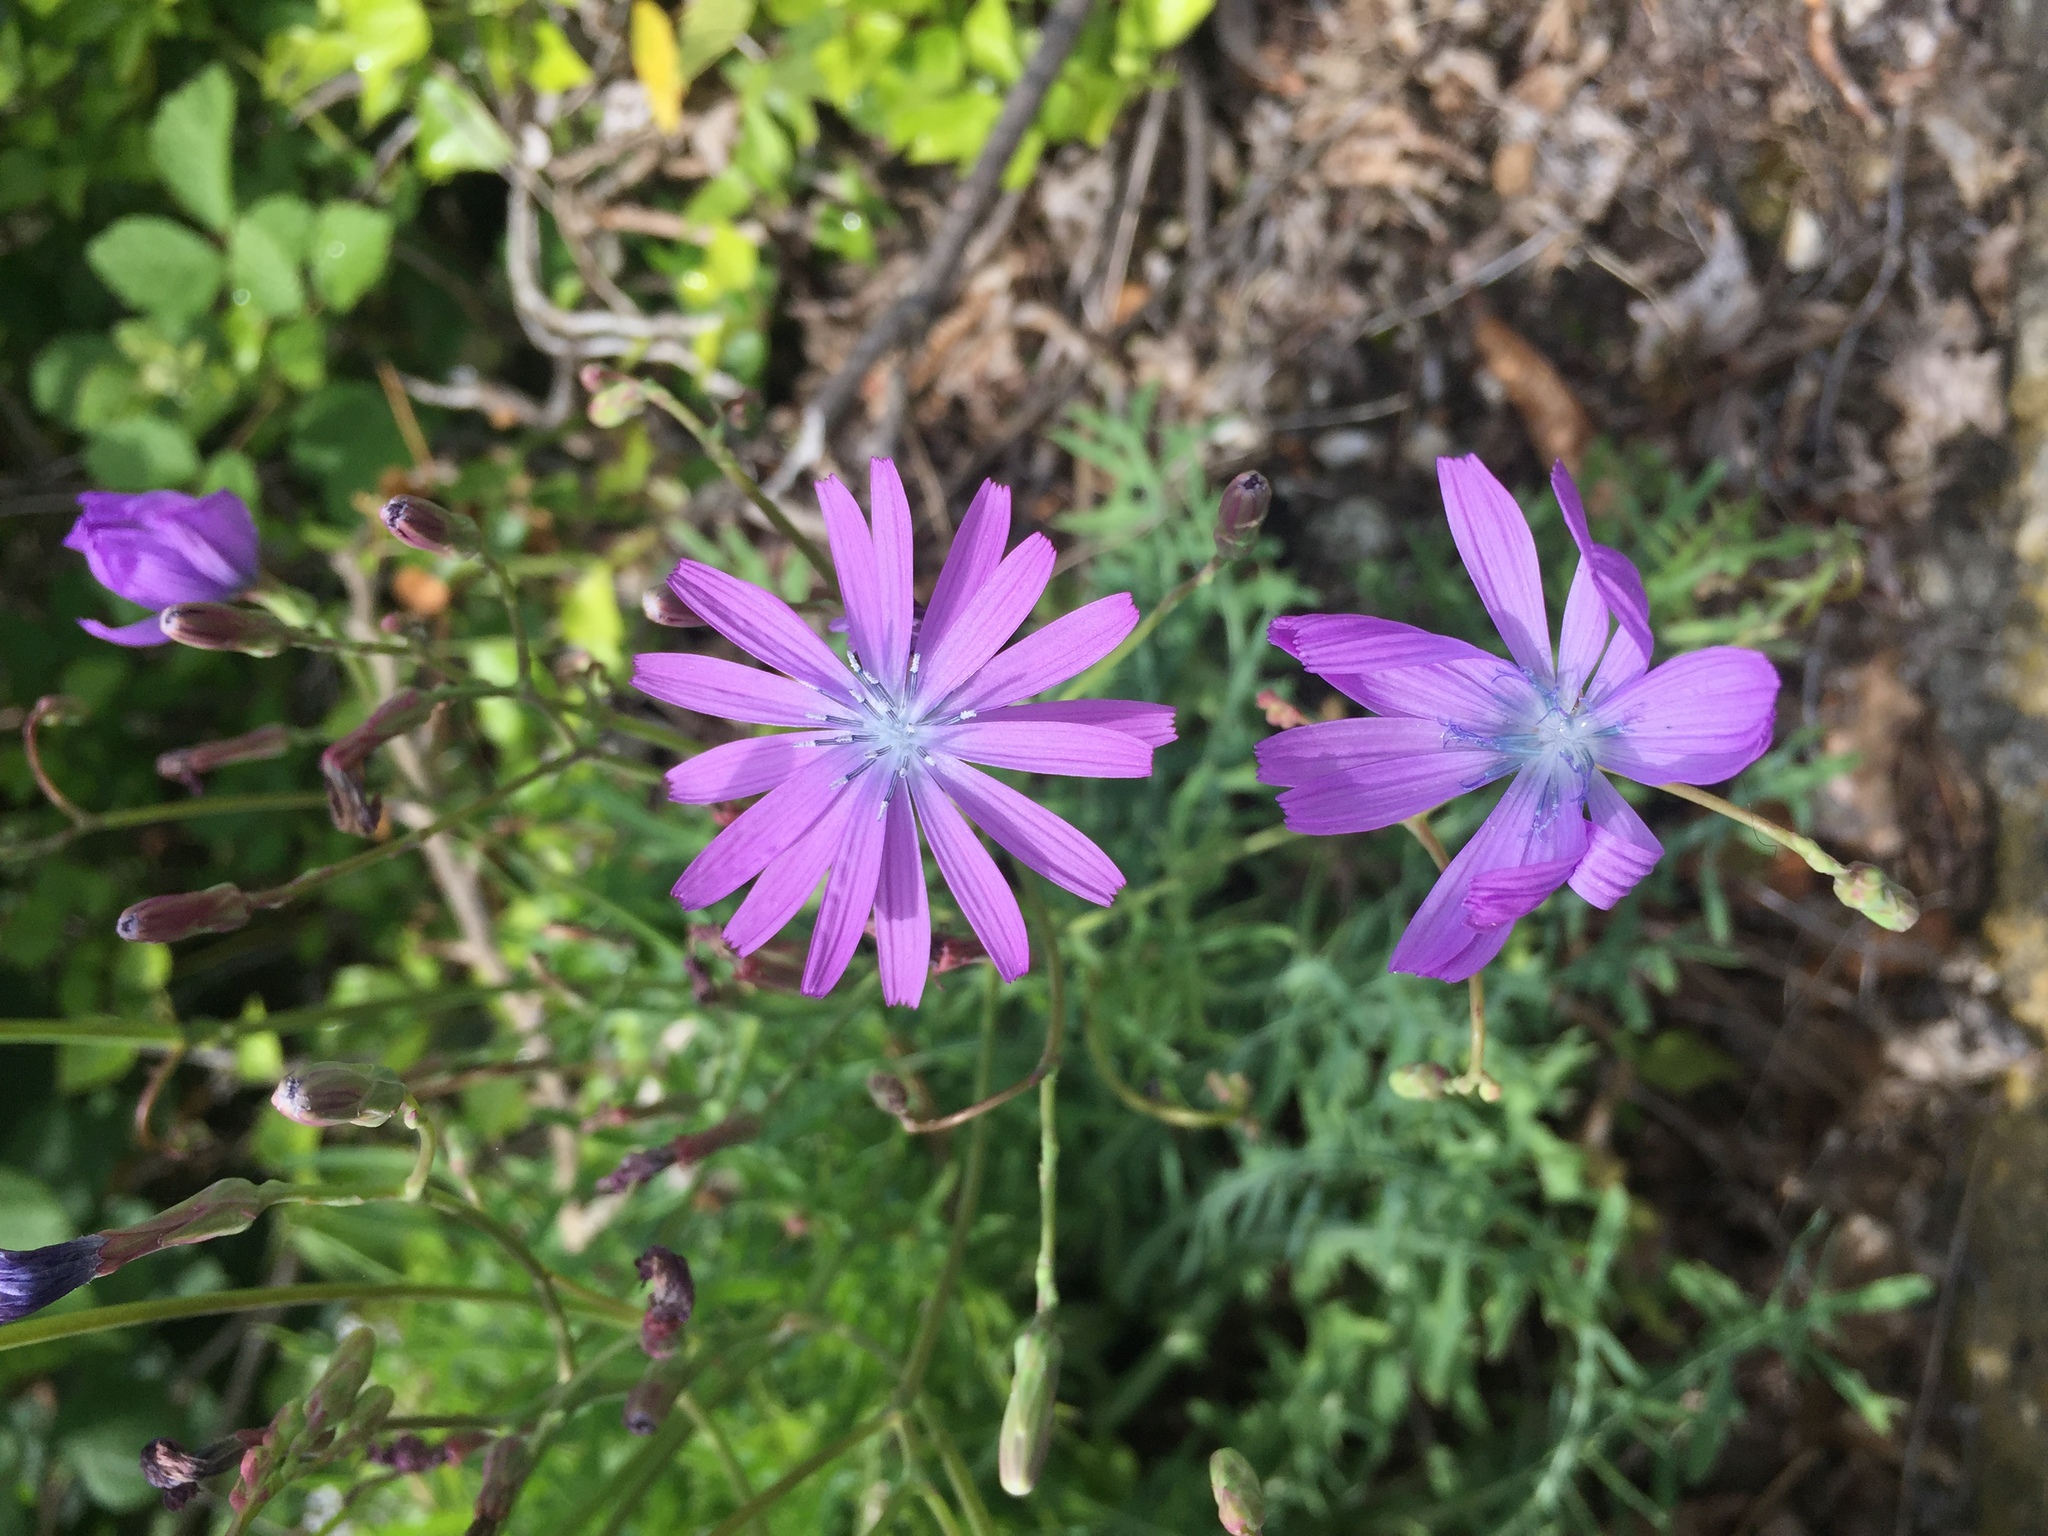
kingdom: Plantae
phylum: Tracheophyta
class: Magnoliopsida
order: Asterales
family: Asteraceae
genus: Lactuca
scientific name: Lactuca perennis
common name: Mountain lettuce
